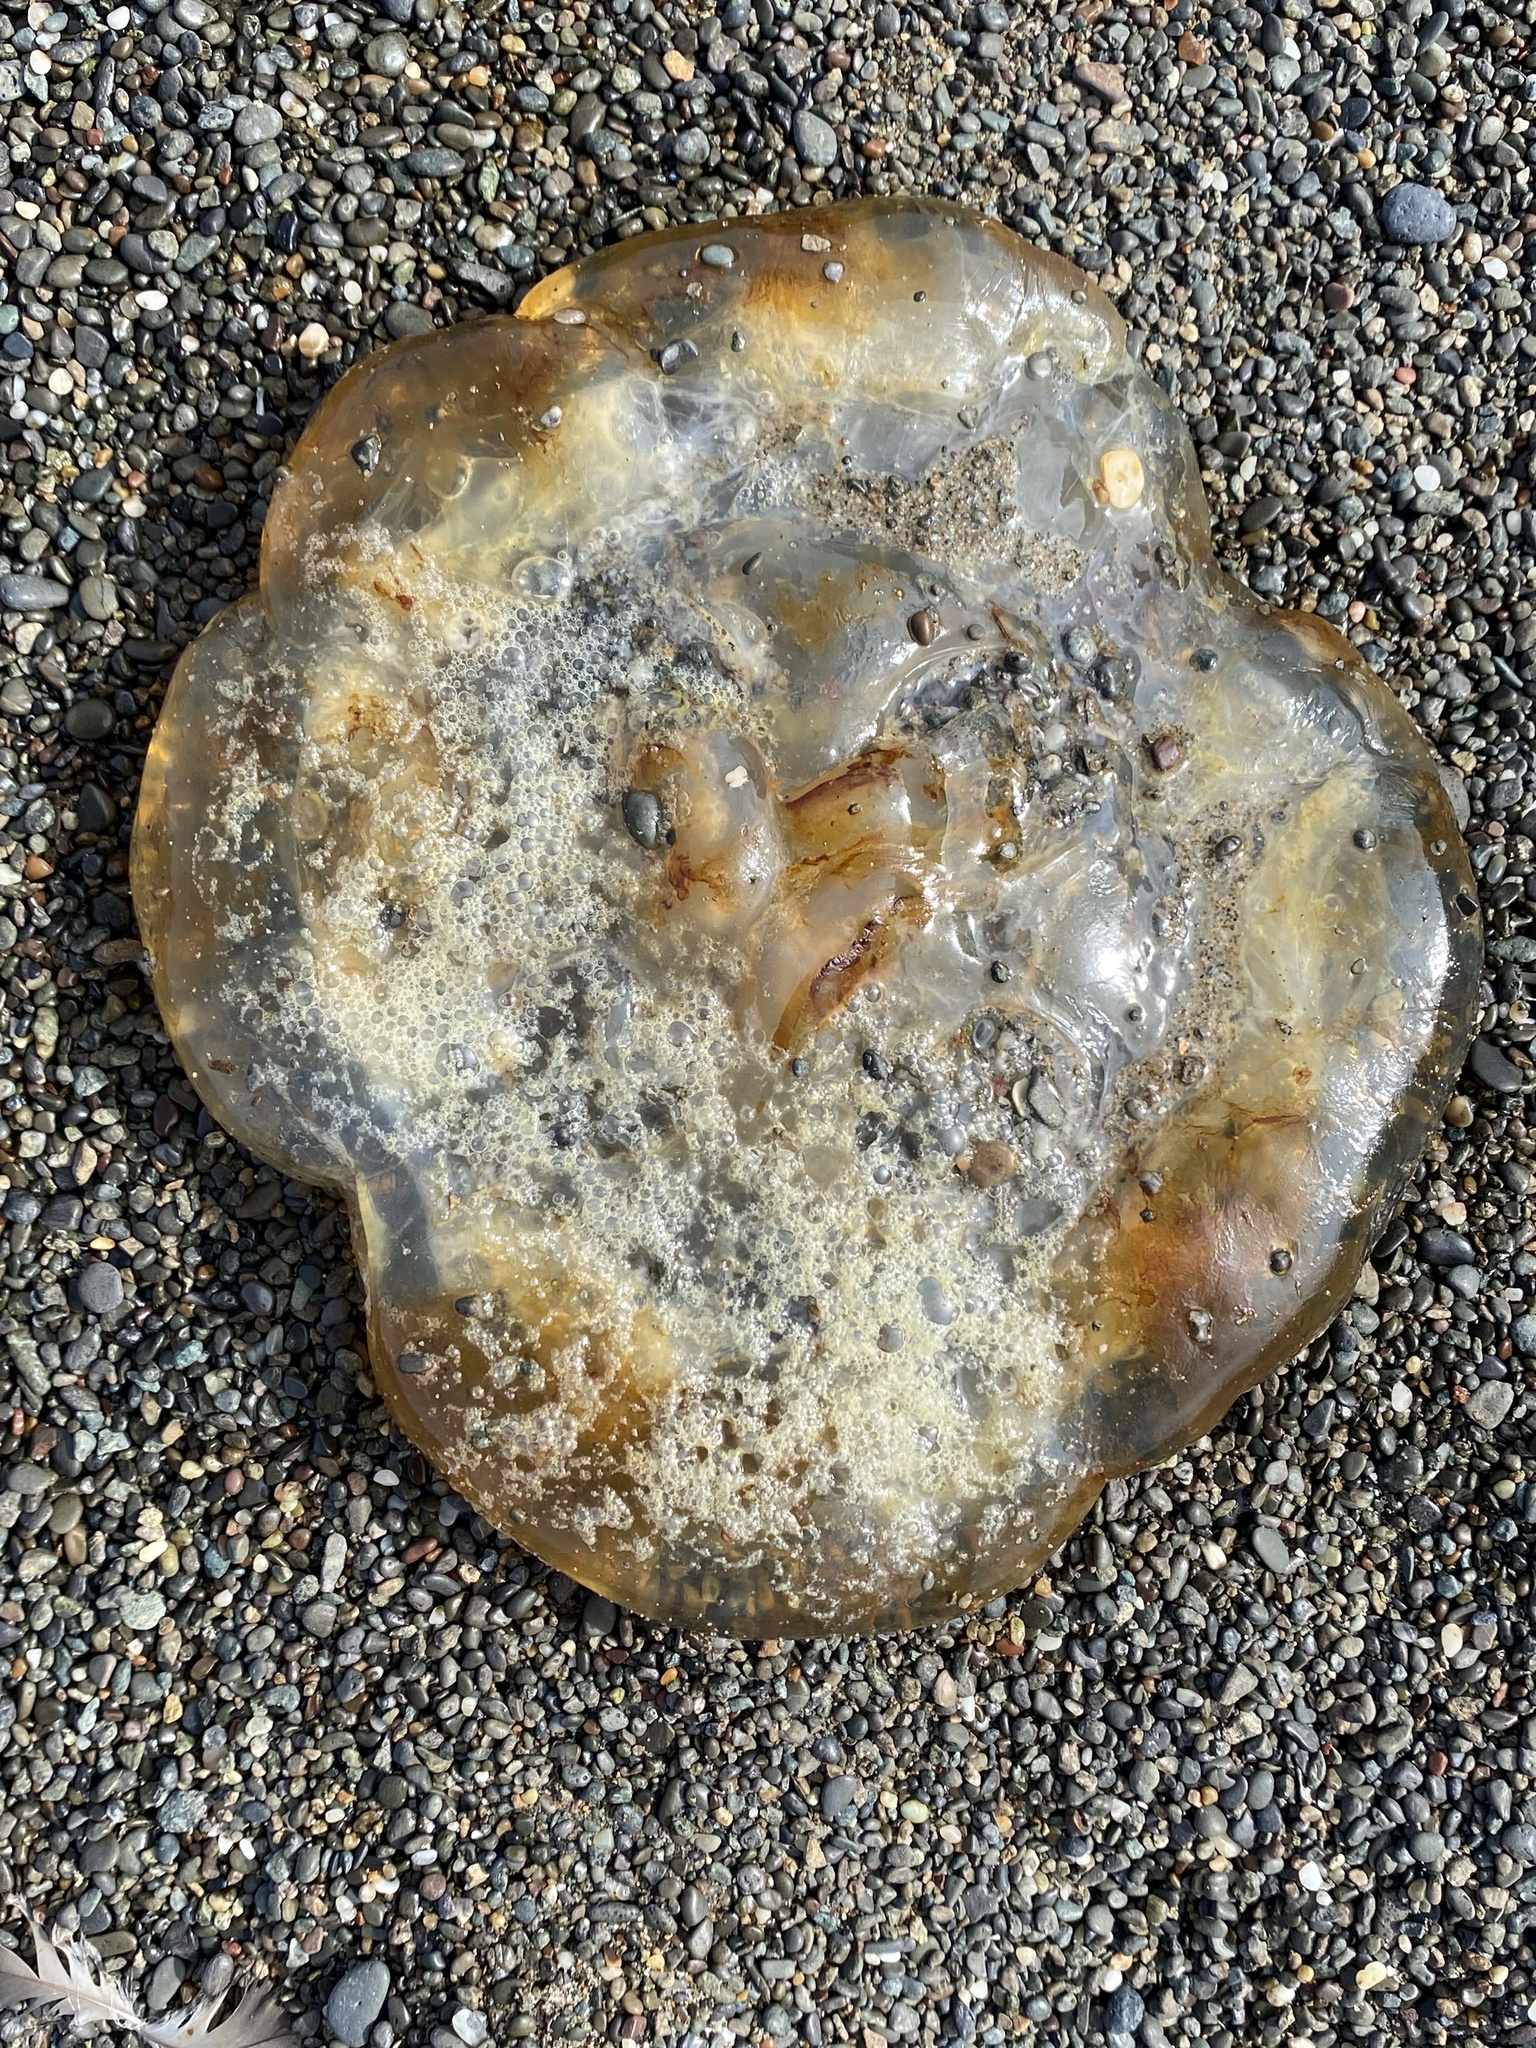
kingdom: Animalia
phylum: Cnidaria
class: Scyphozoa
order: Semaeostomeae
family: Pelagiidae
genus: Chrysaora
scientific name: Chrysaora fuscescens
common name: Sea nettle
